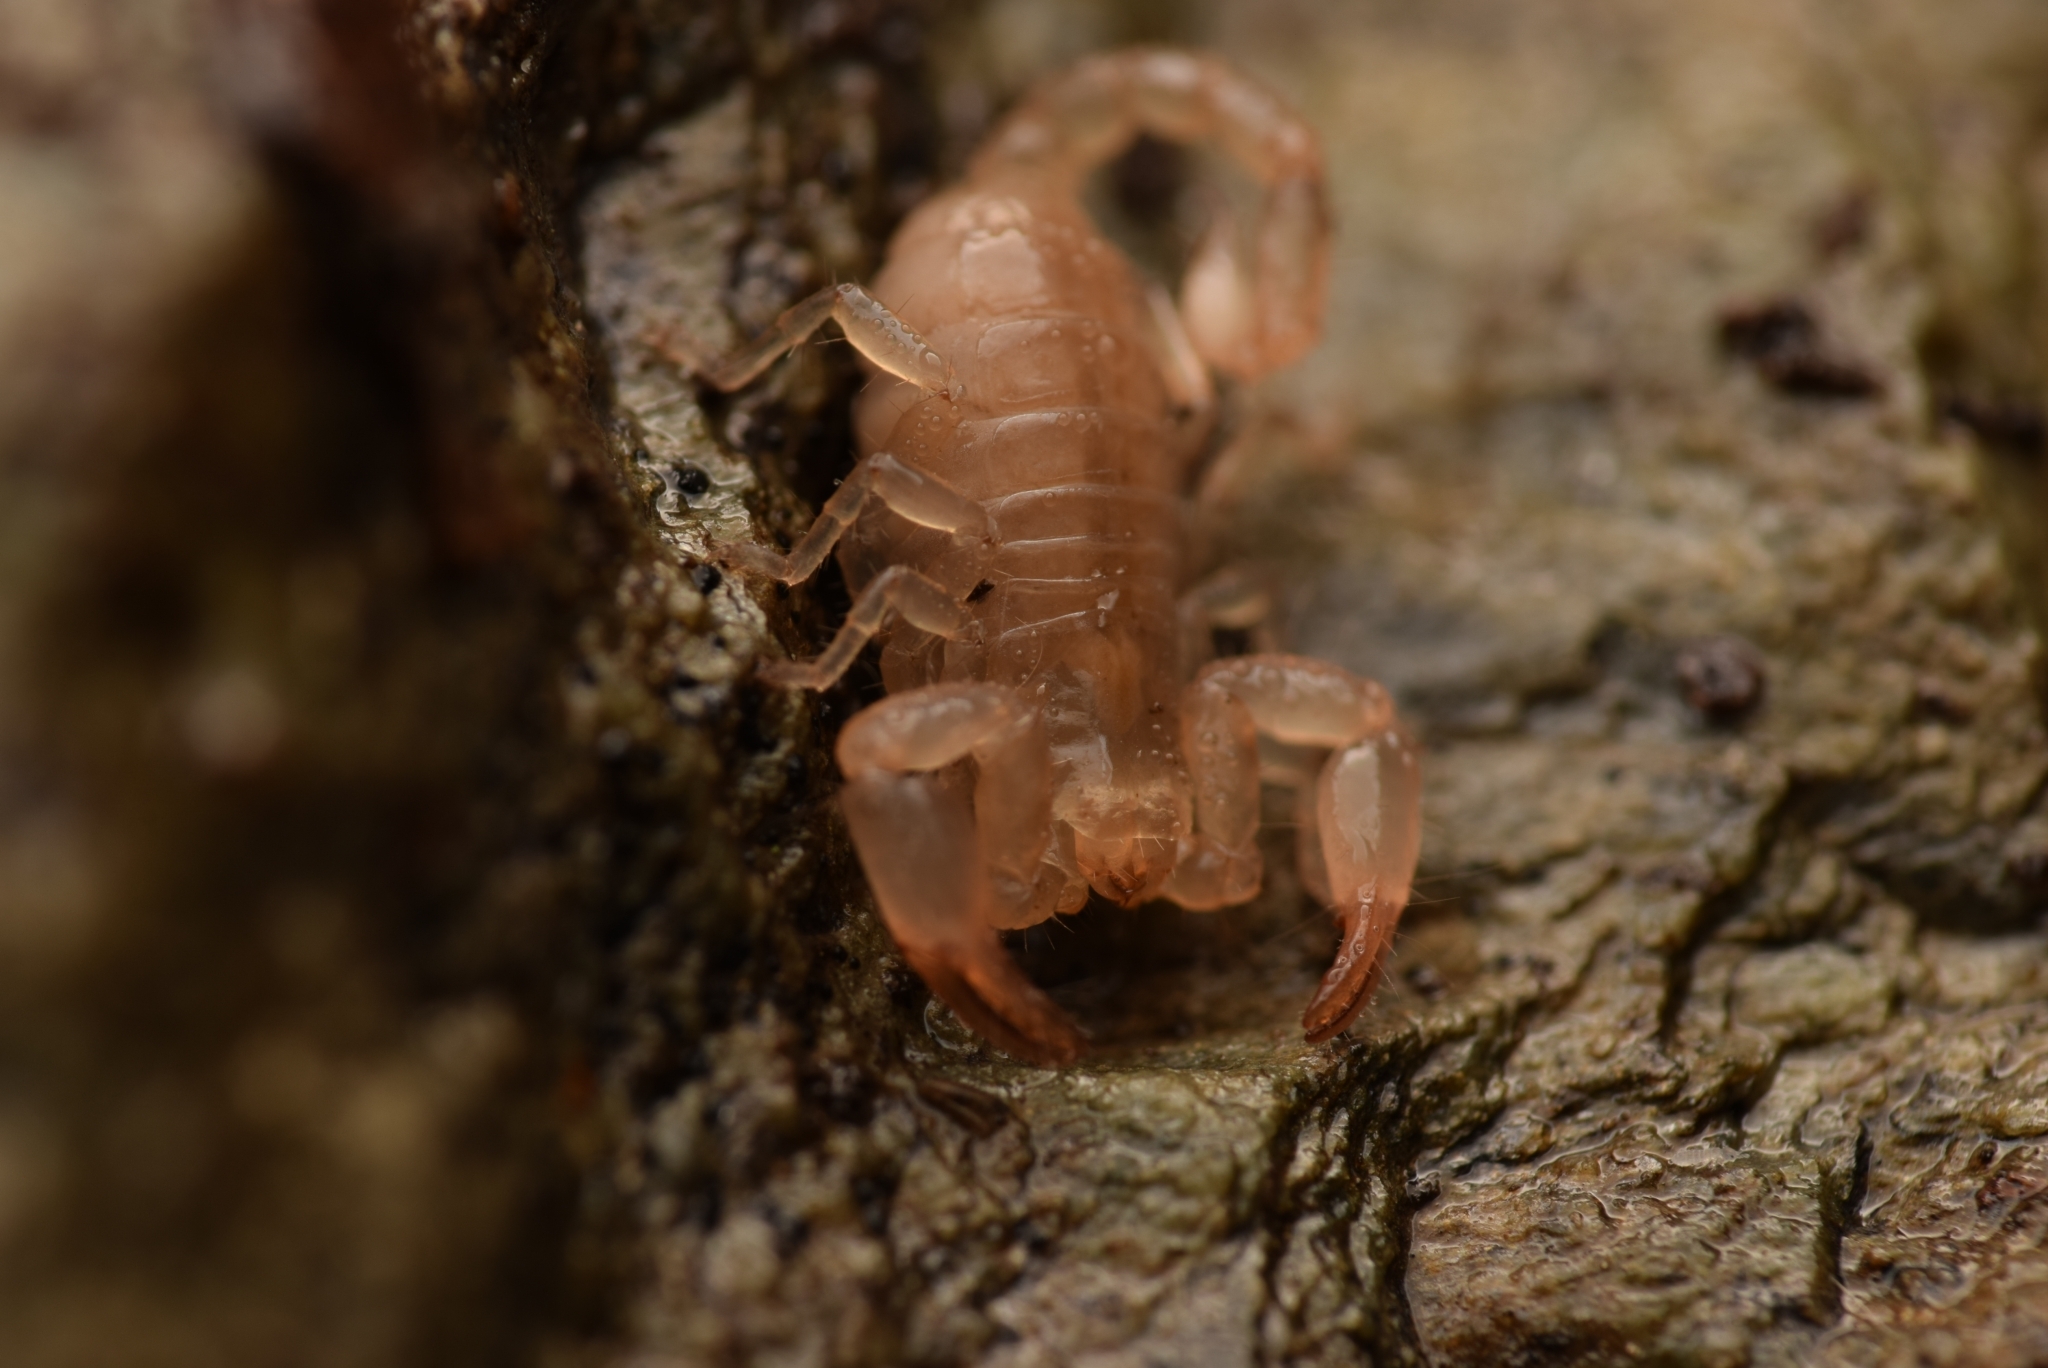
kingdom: Animalia
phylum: Arthropoda
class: Arachnida
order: Scorpiones
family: Belisariidae
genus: Belisarius
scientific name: Belisarius xambeui
